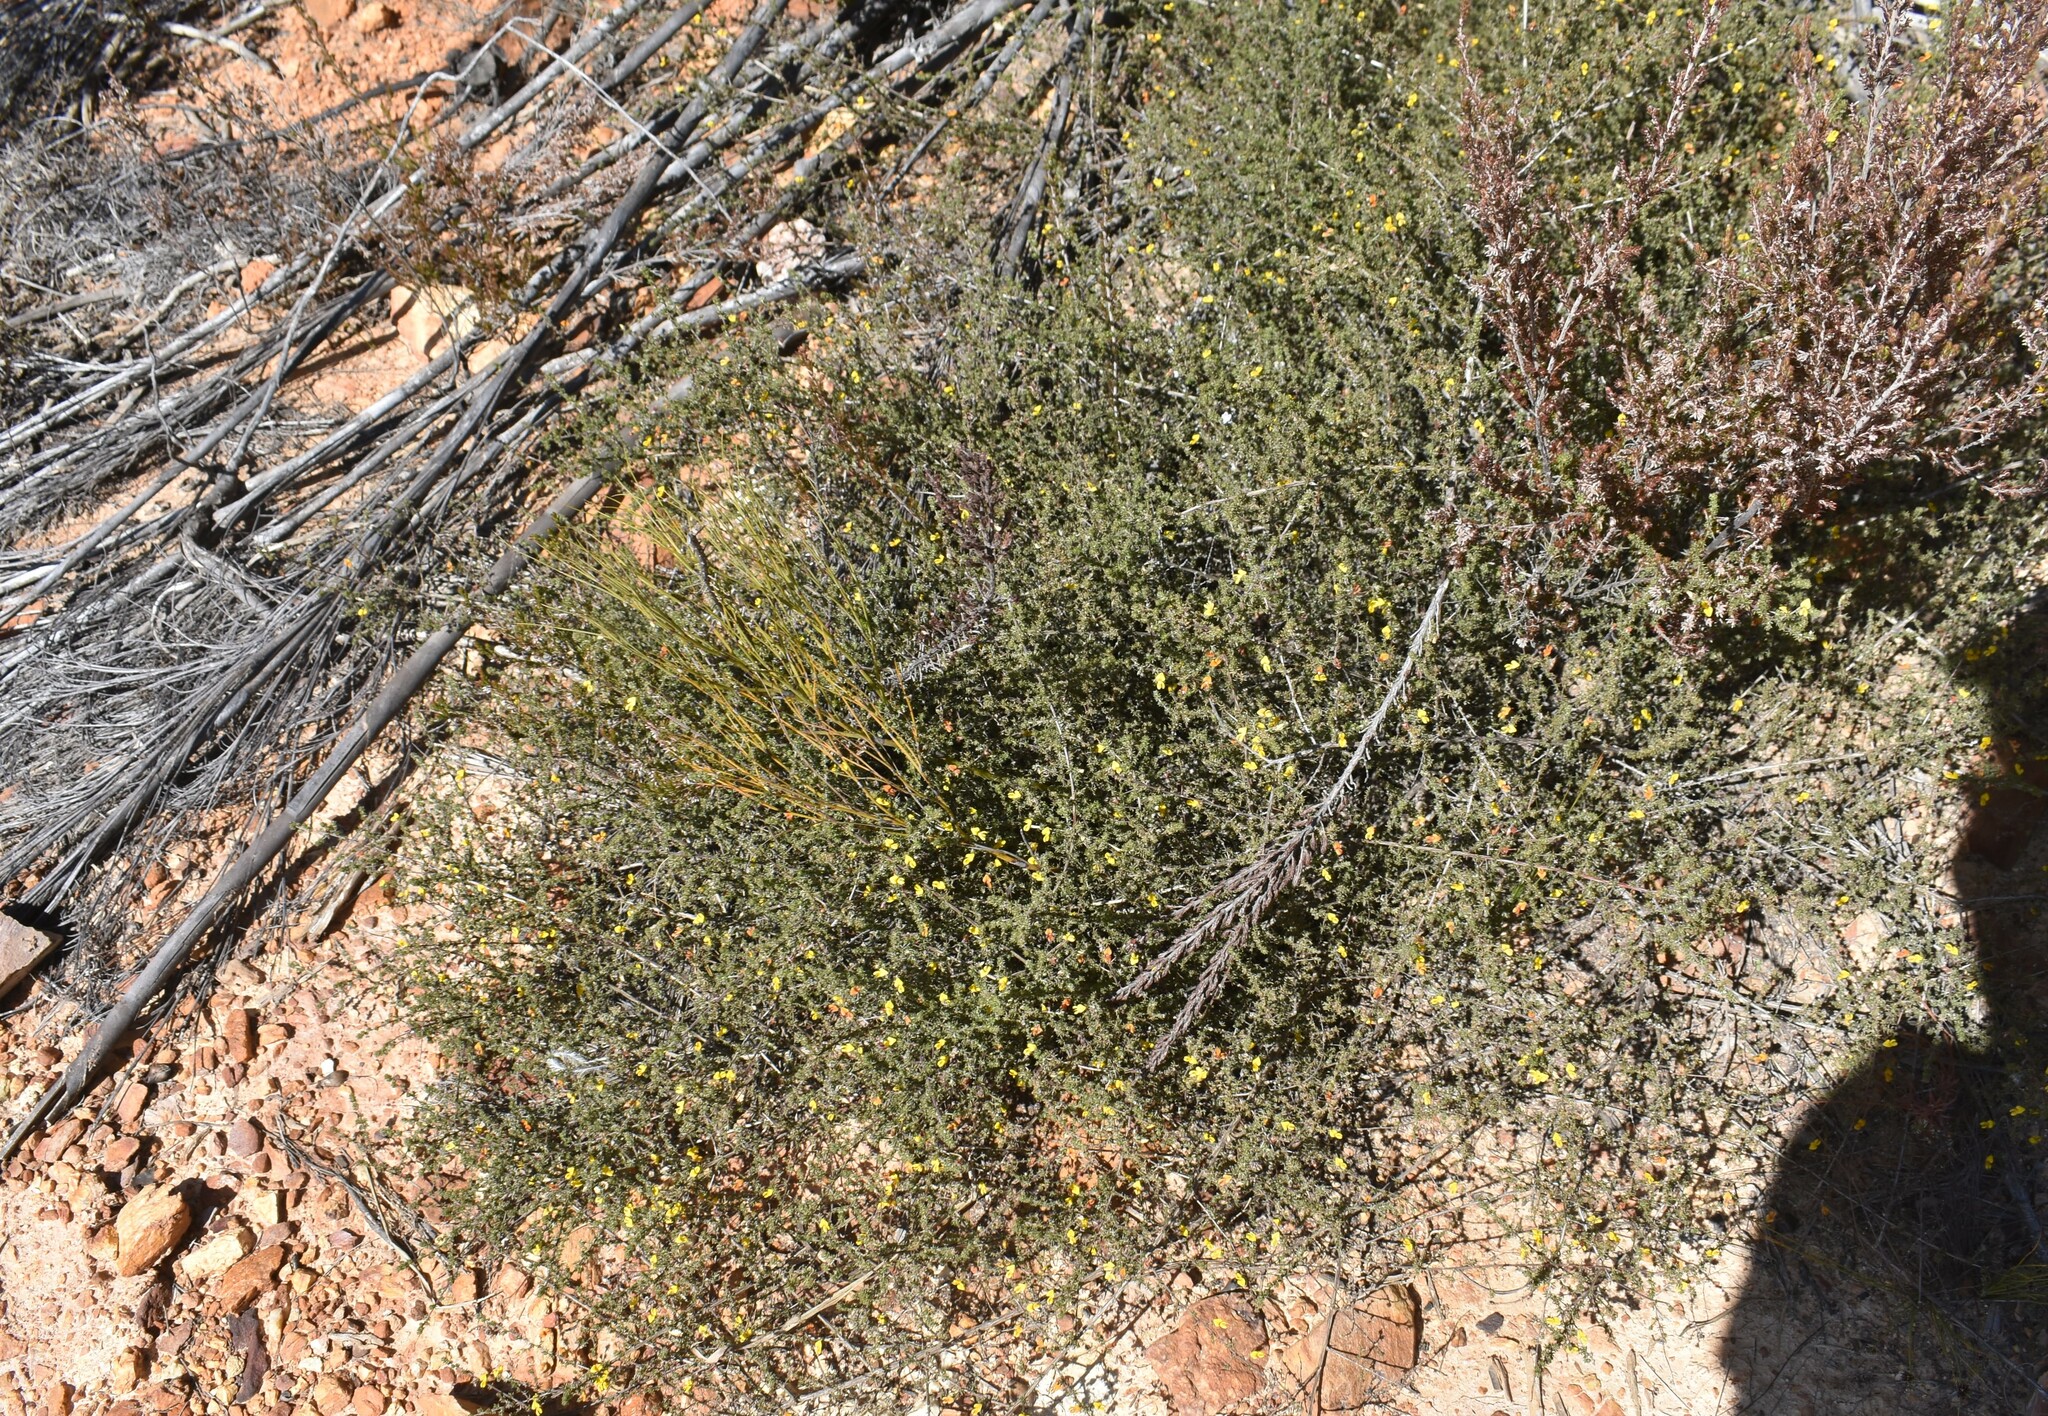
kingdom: Plantae
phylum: Tracheophyta
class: Magnoliopsida
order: Fabales
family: Fabaceae
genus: Aspalathus
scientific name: Aspalathus rubens
